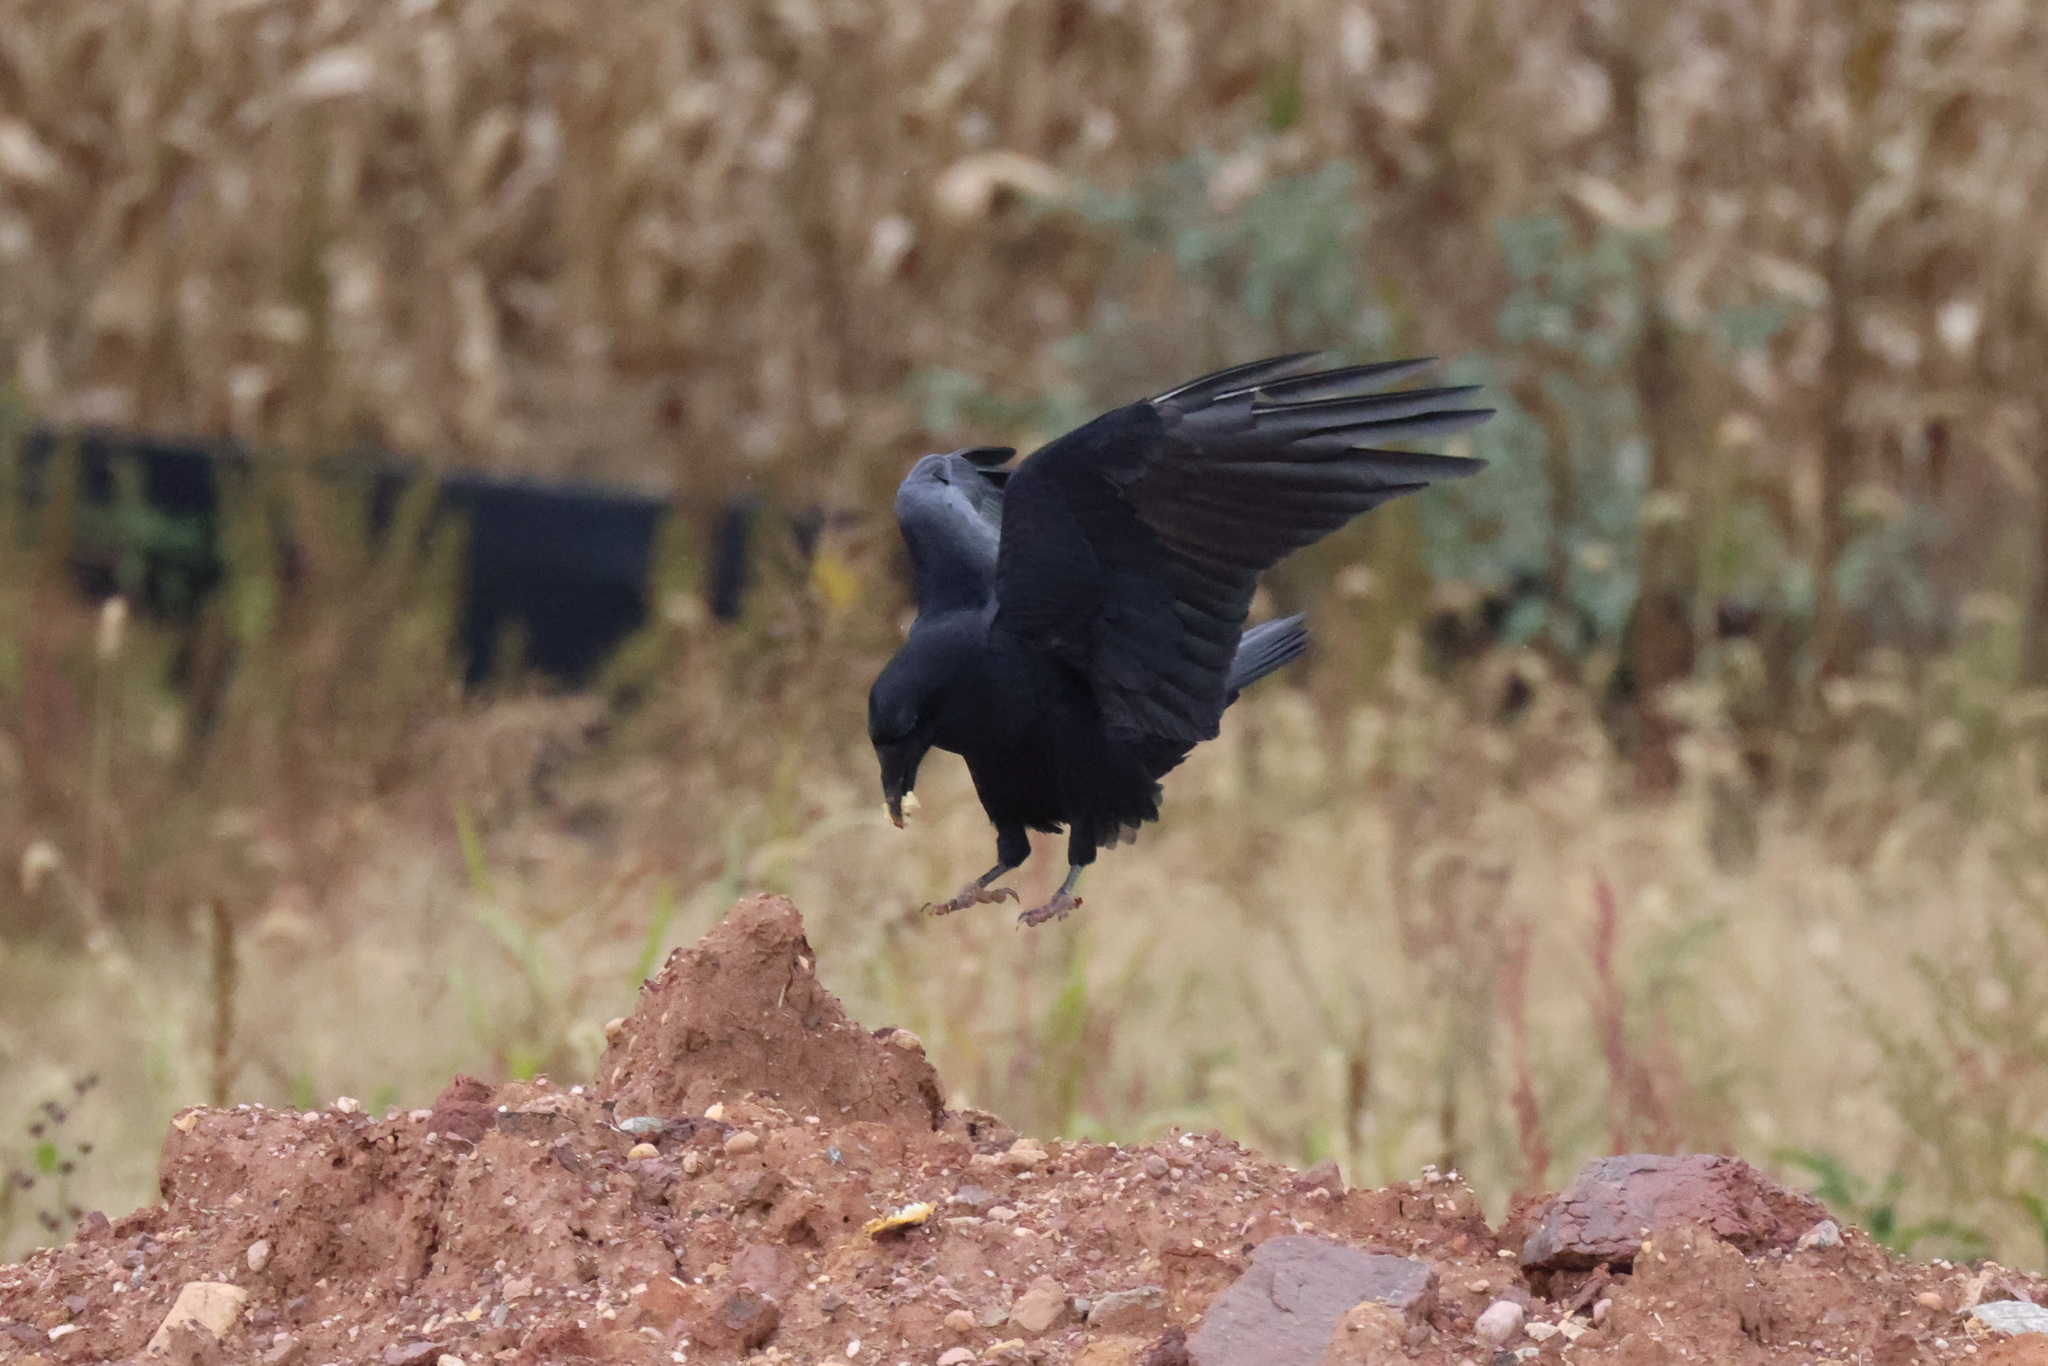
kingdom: Animalia
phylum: Chordata
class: Aves
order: Passeriformes
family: Corvidae
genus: Corvus
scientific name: Corvus corax
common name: Common raven
